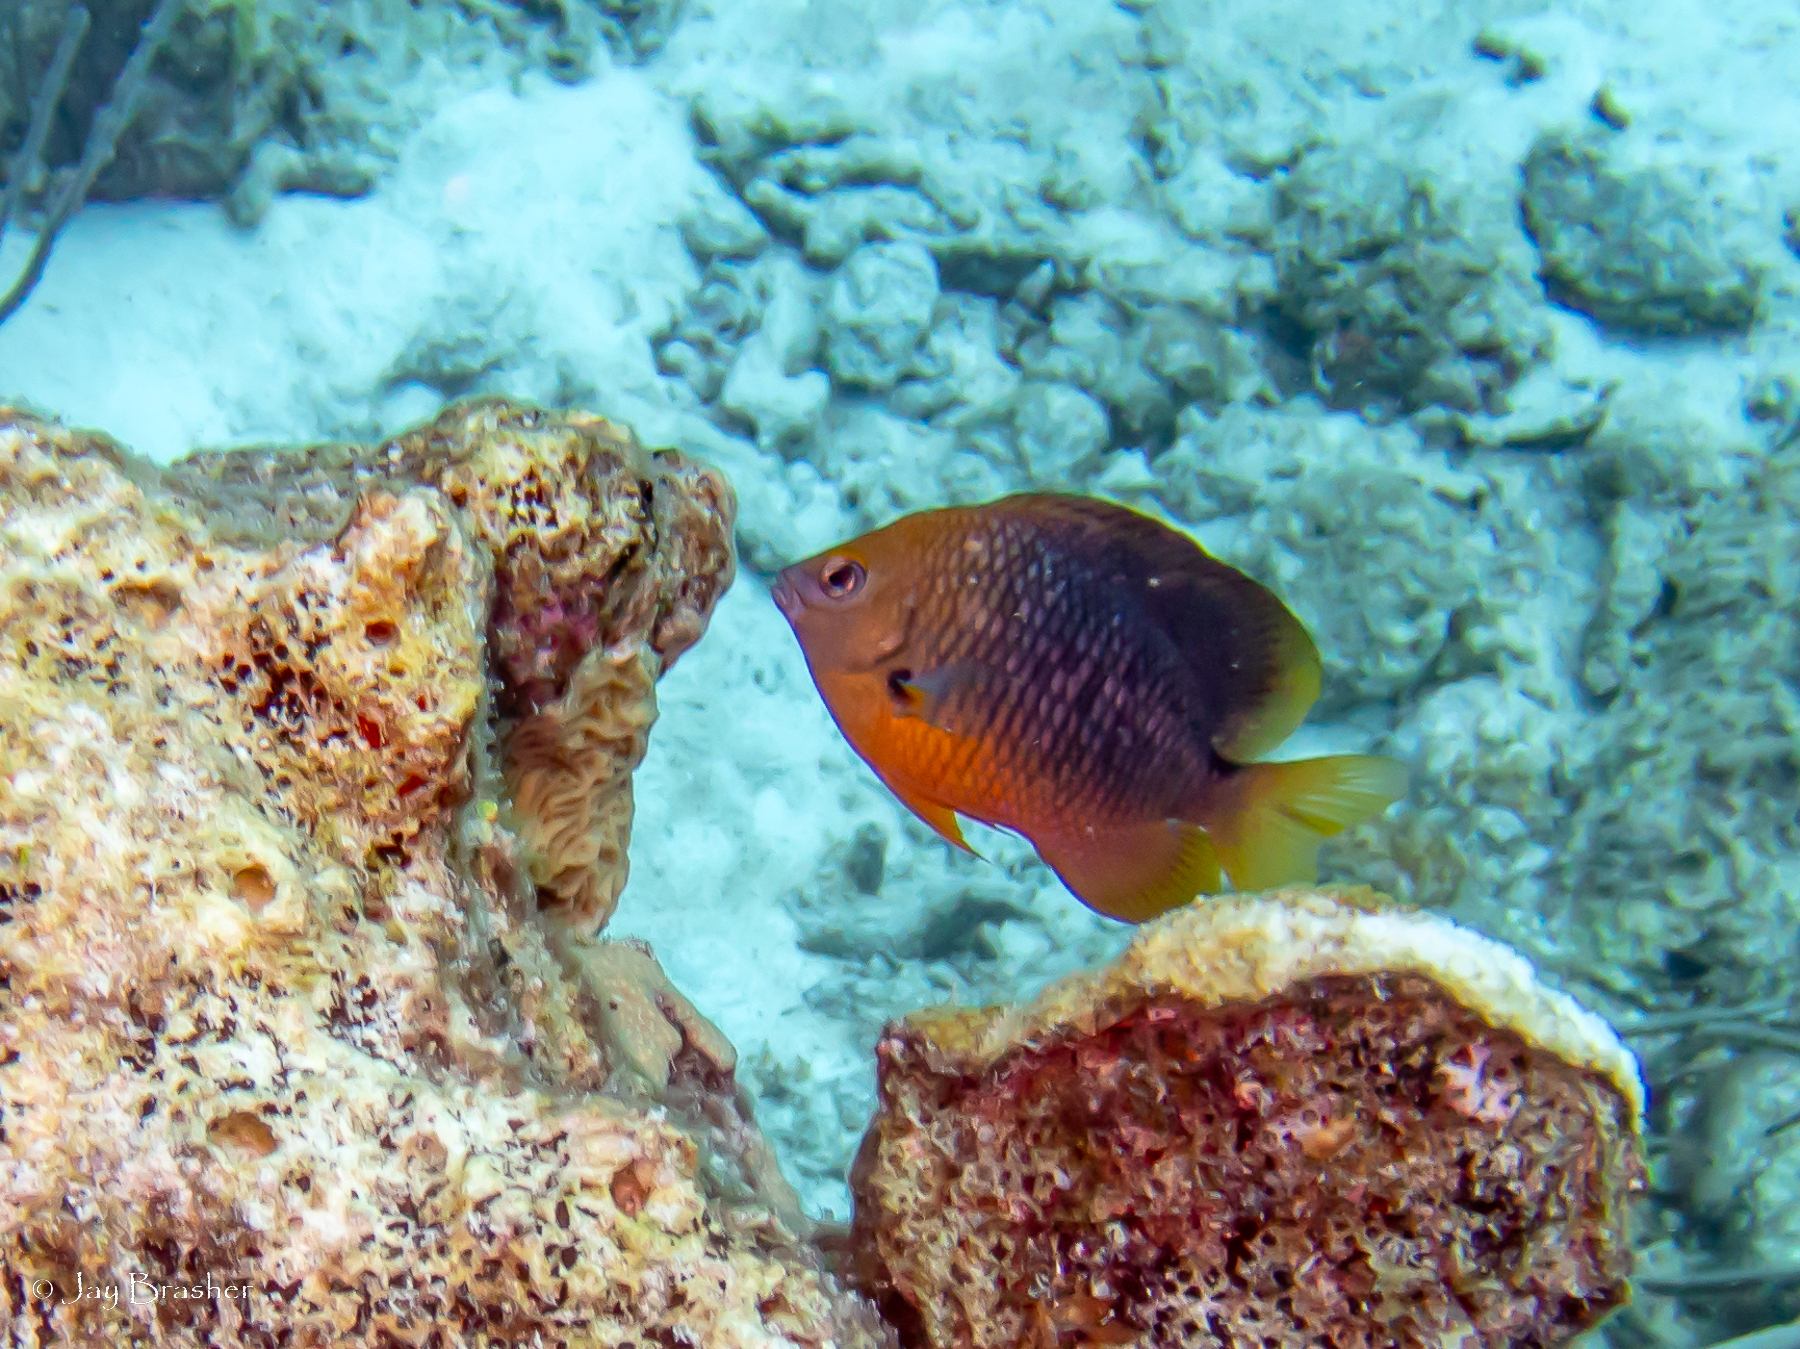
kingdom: Animalia
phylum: Chordata
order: Perciformes
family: Pomacentridae
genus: Stegastes
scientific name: Stegastes planifrons
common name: Threespot damselfish
